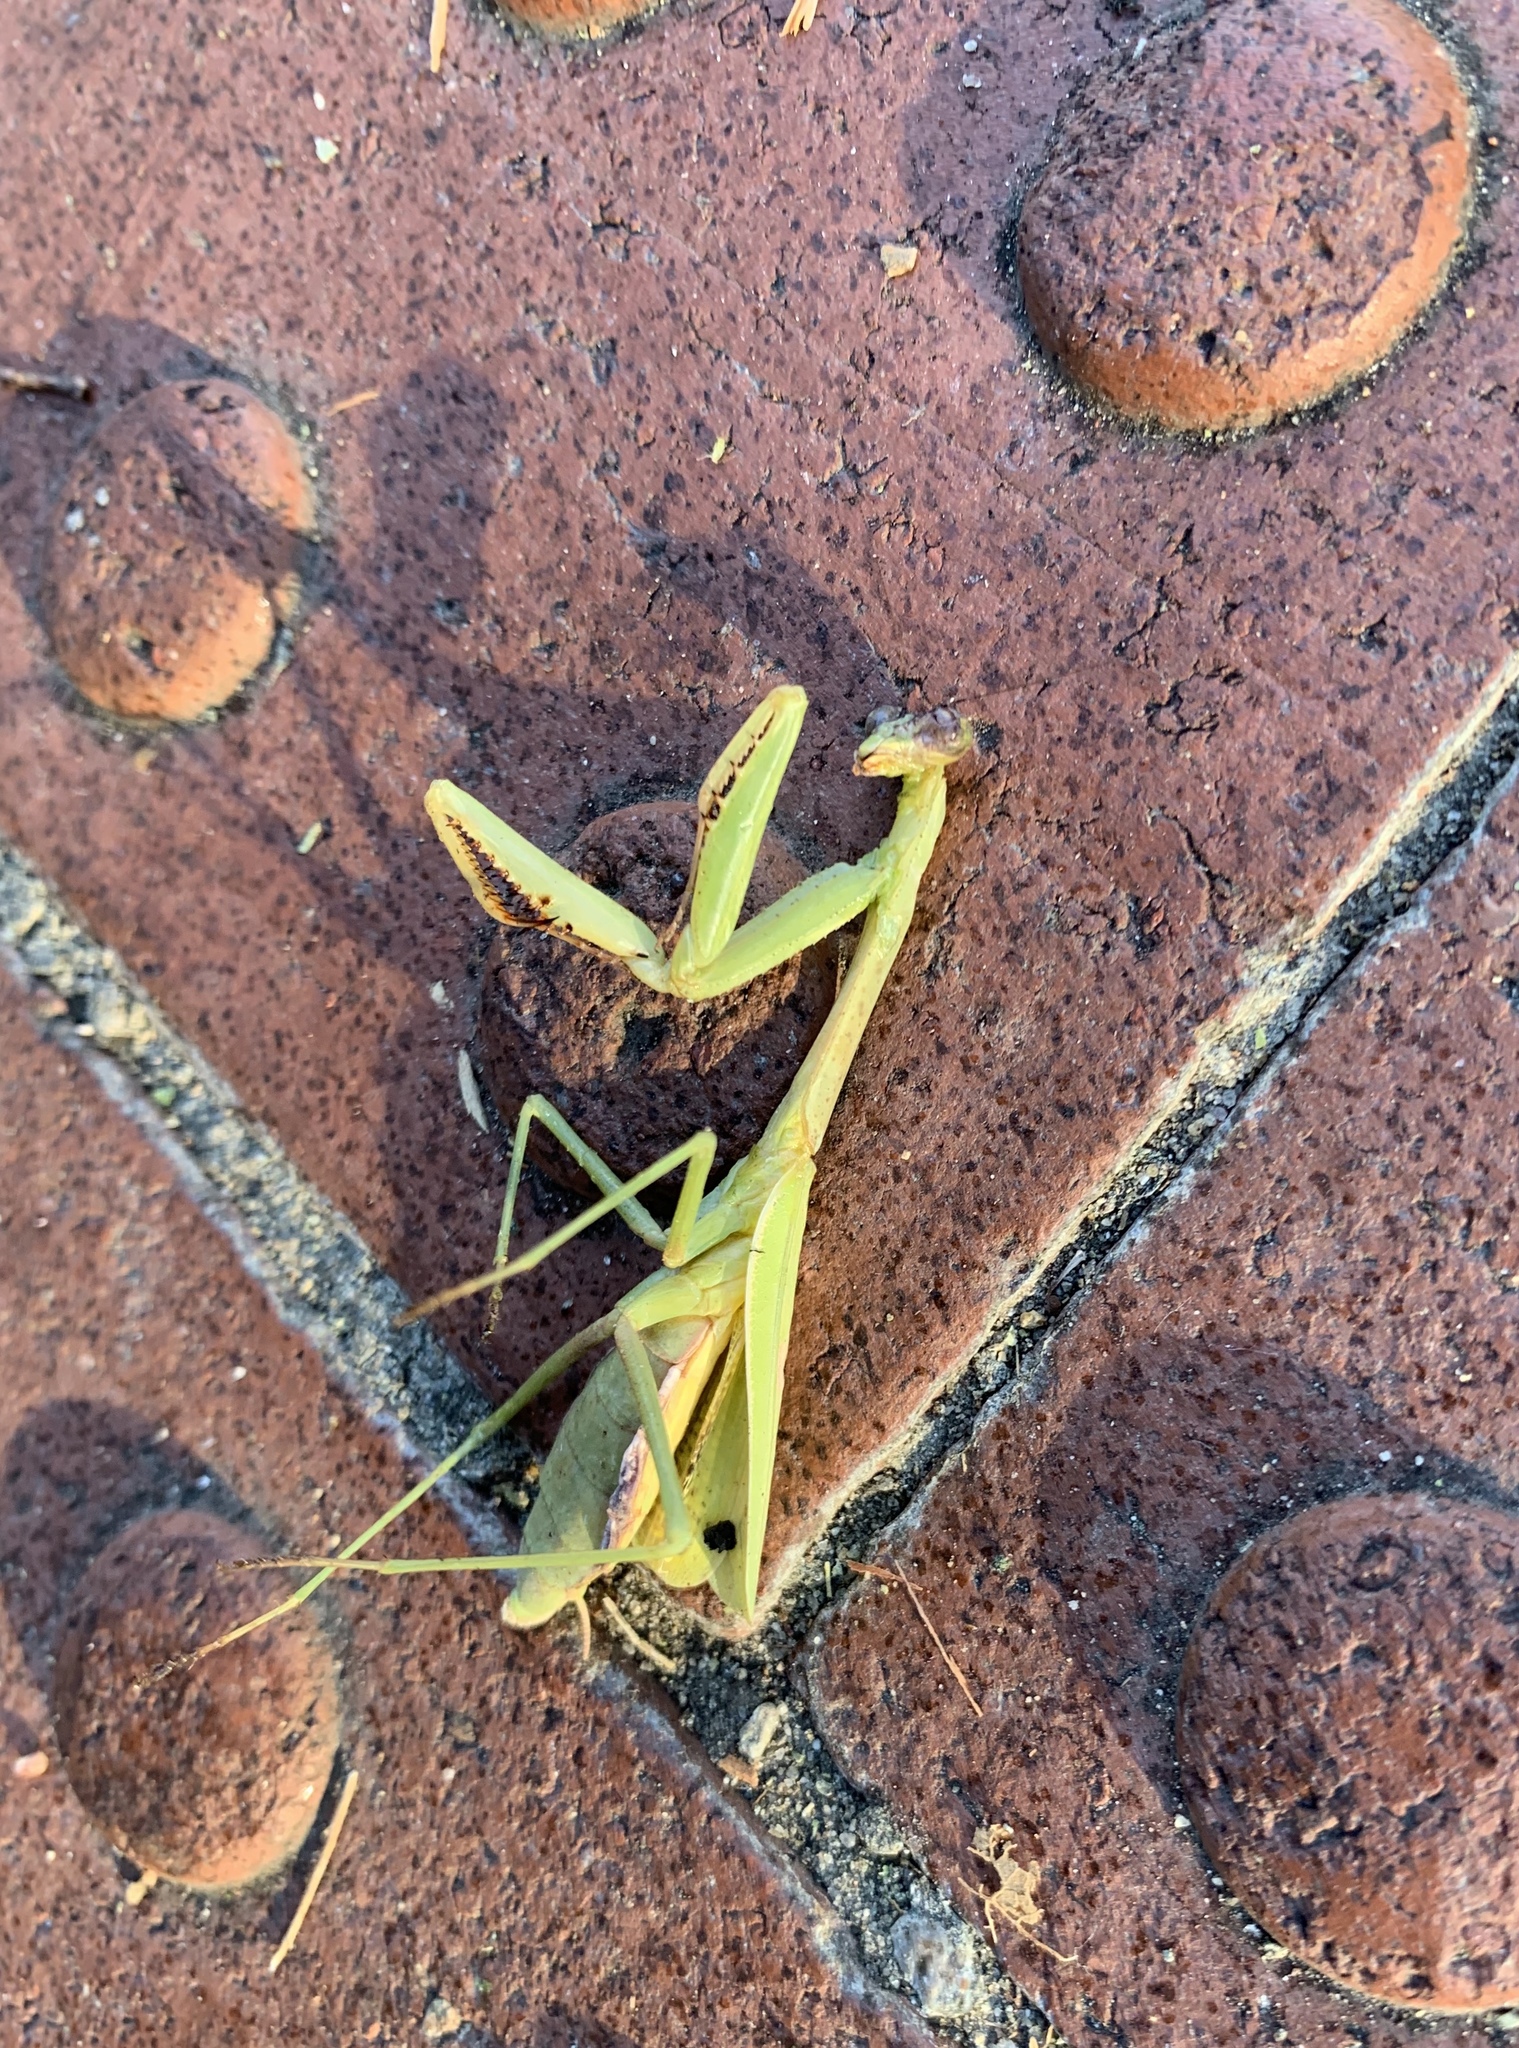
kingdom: Animalia
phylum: Arthropoda
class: Insecta
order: Mantodea
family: Mantidae
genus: Stagmomantis
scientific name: Stagmomantis carolina
